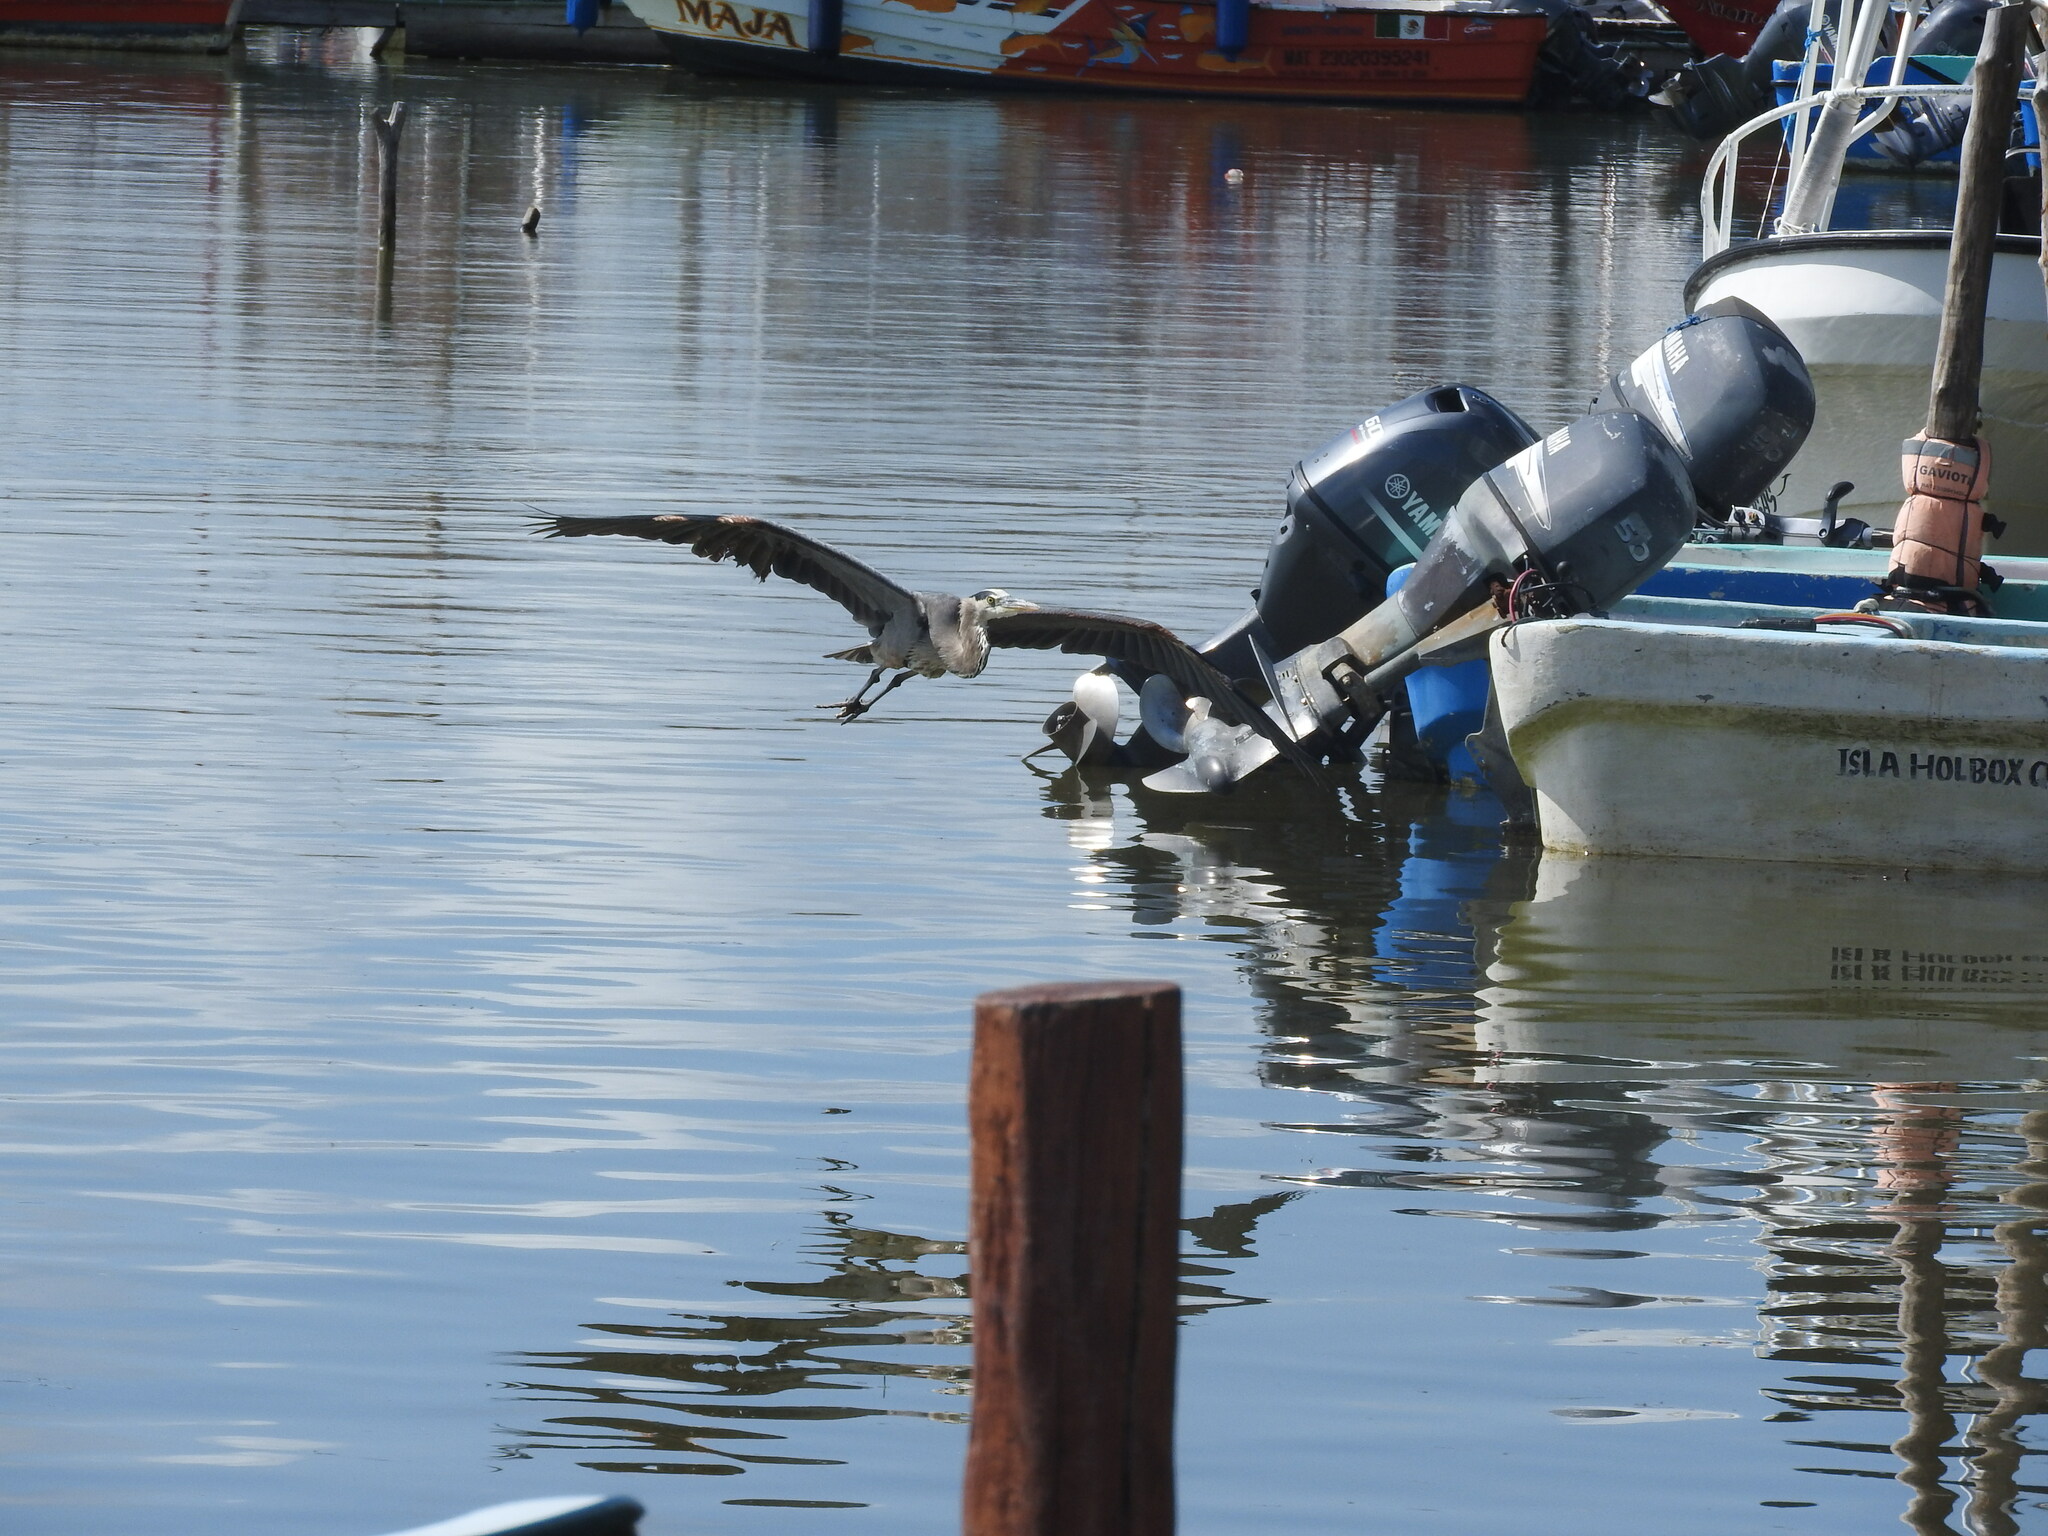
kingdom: Animalia
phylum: Chordata
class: Aves
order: Pelecaniformes
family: Ardeidae
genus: Ardea
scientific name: Ardea herodias
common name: Great blue heron
